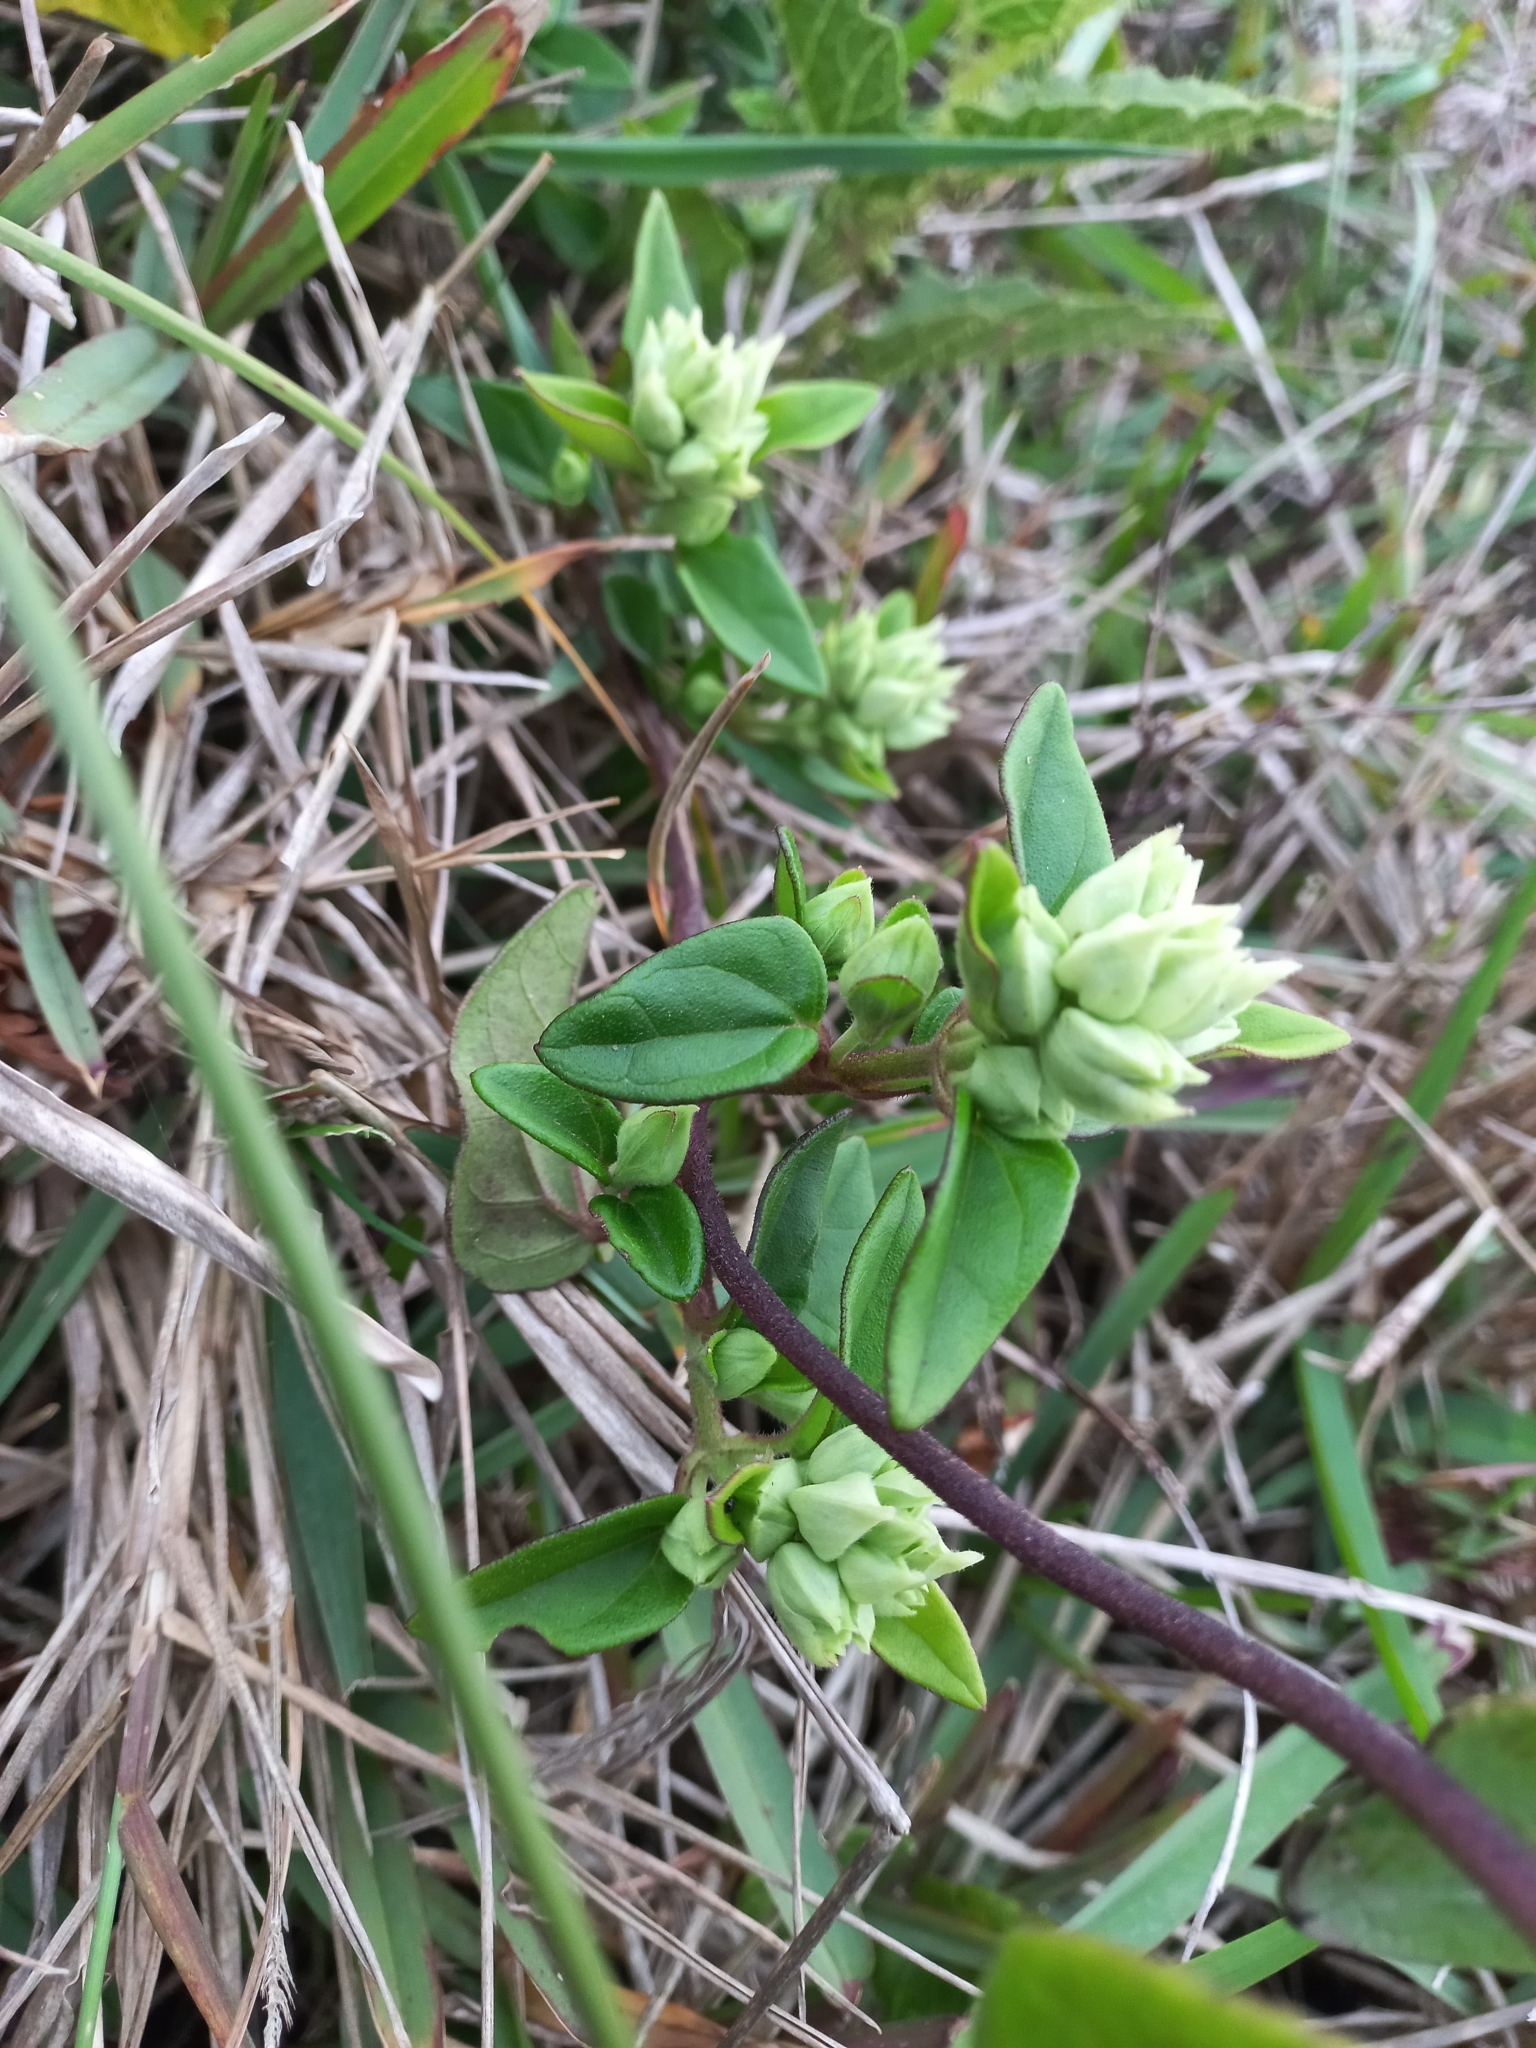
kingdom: Plantae
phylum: Tracheophyta
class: Magnoliopsida
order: Asterales
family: Asteraceae
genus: Mikania
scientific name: Mikania involucrata
